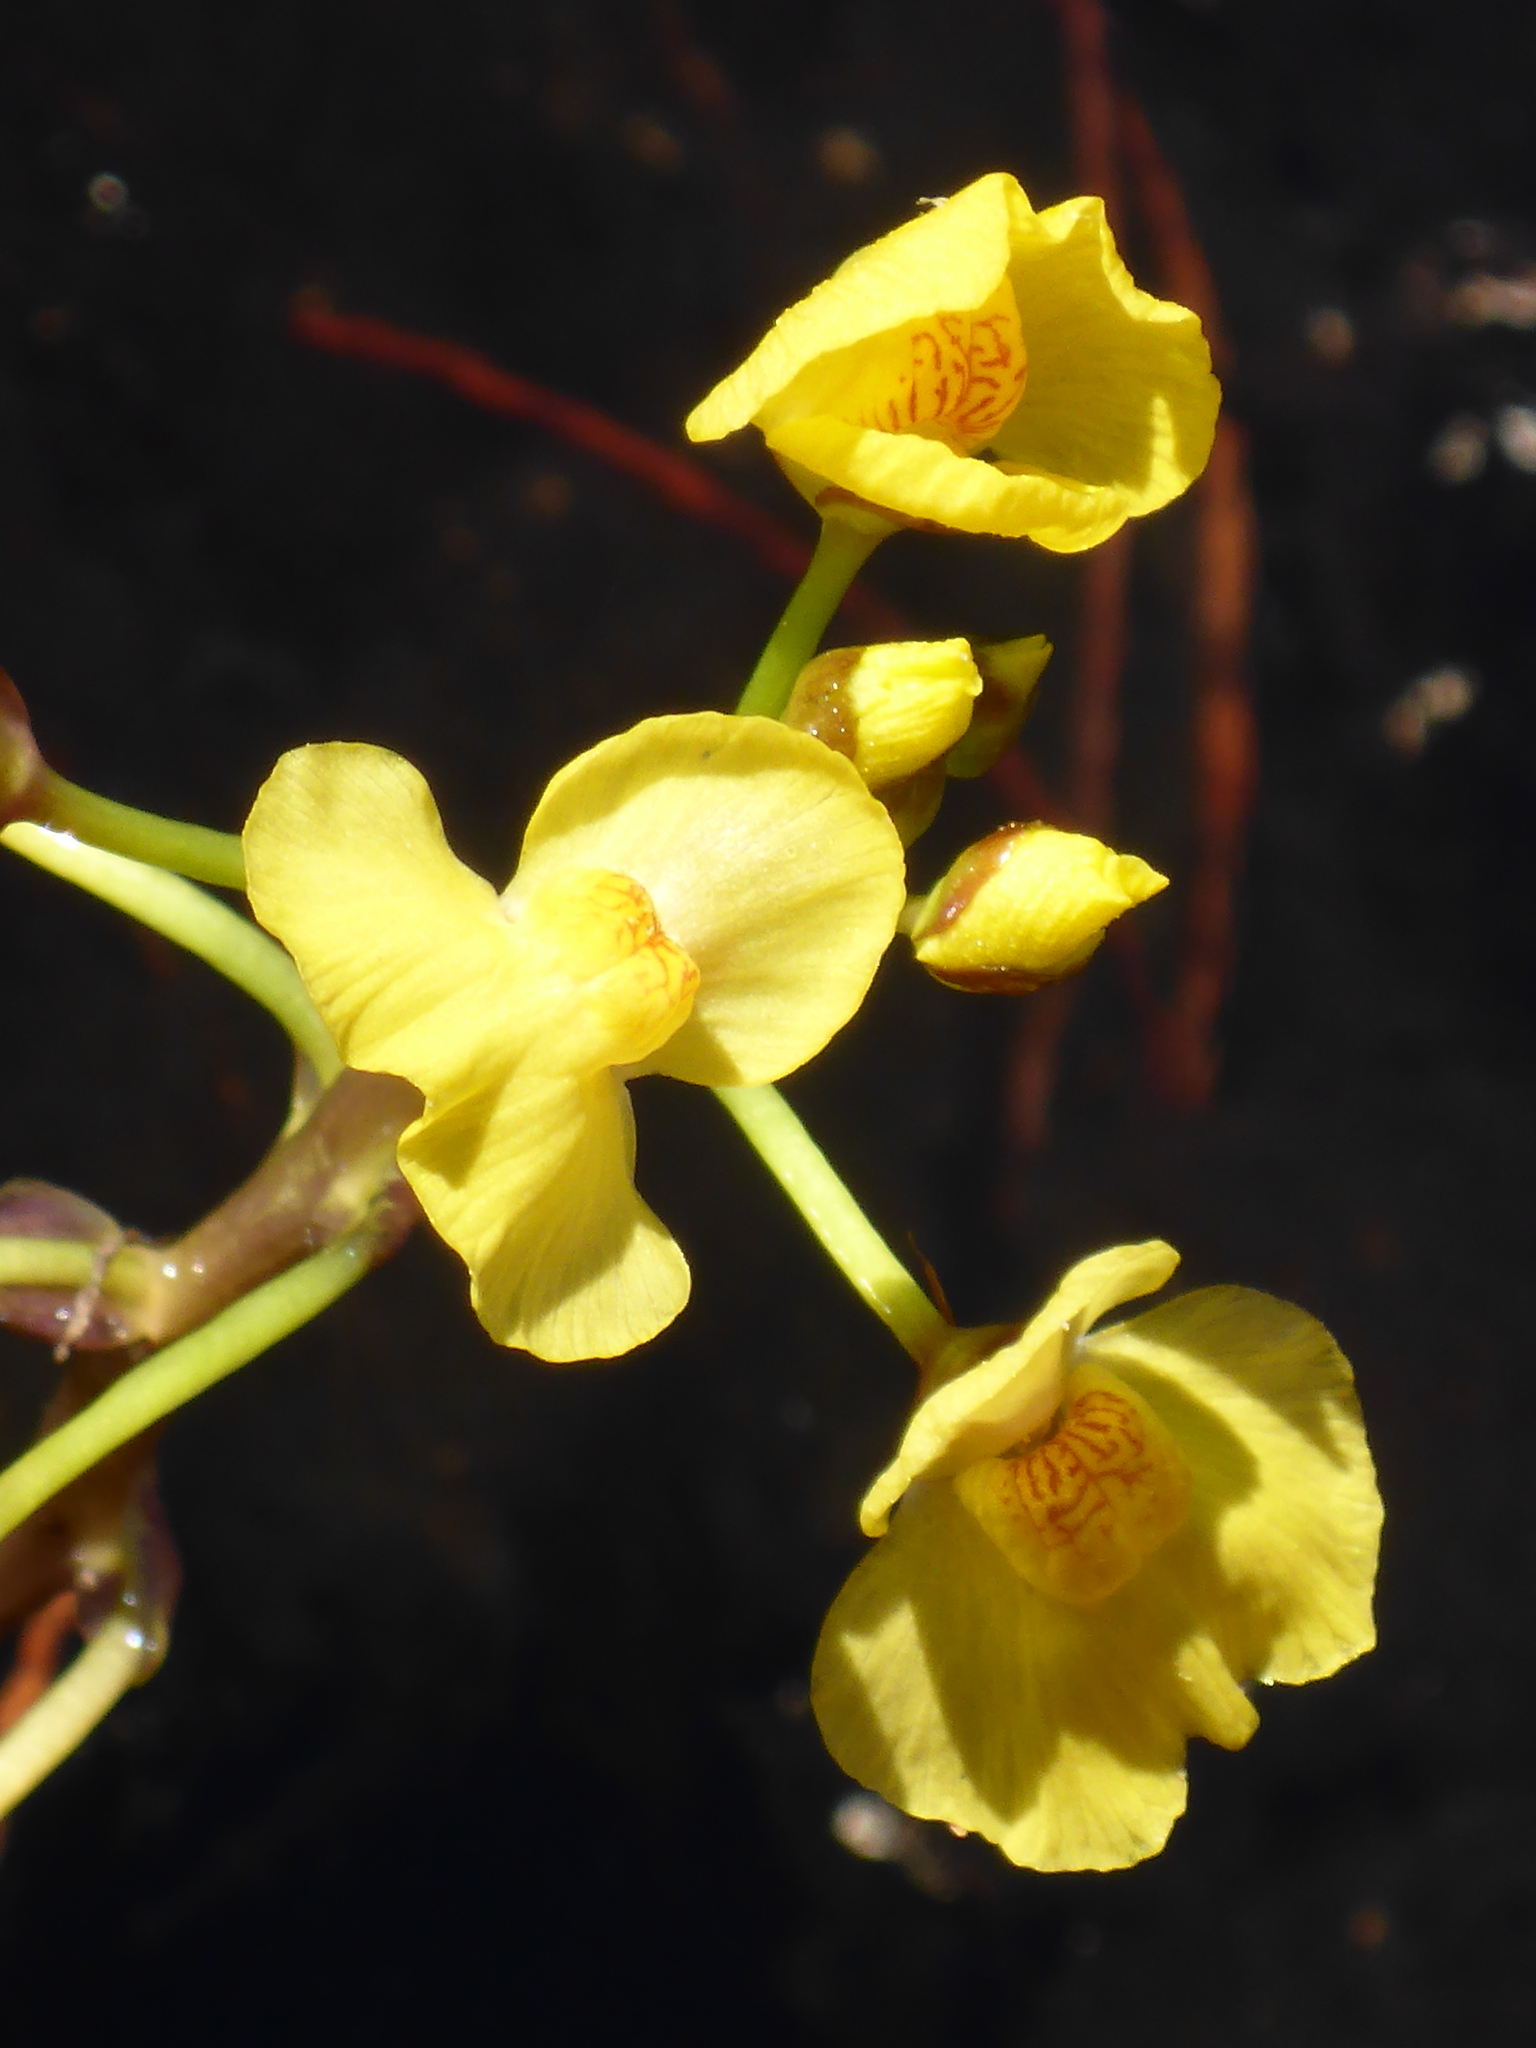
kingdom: Plantae
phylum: Tracheophyta
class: Magnoliopsida
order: Lamiales
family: Lentibulariaceae
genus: Utricularia
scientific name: Utricularia foliosa
